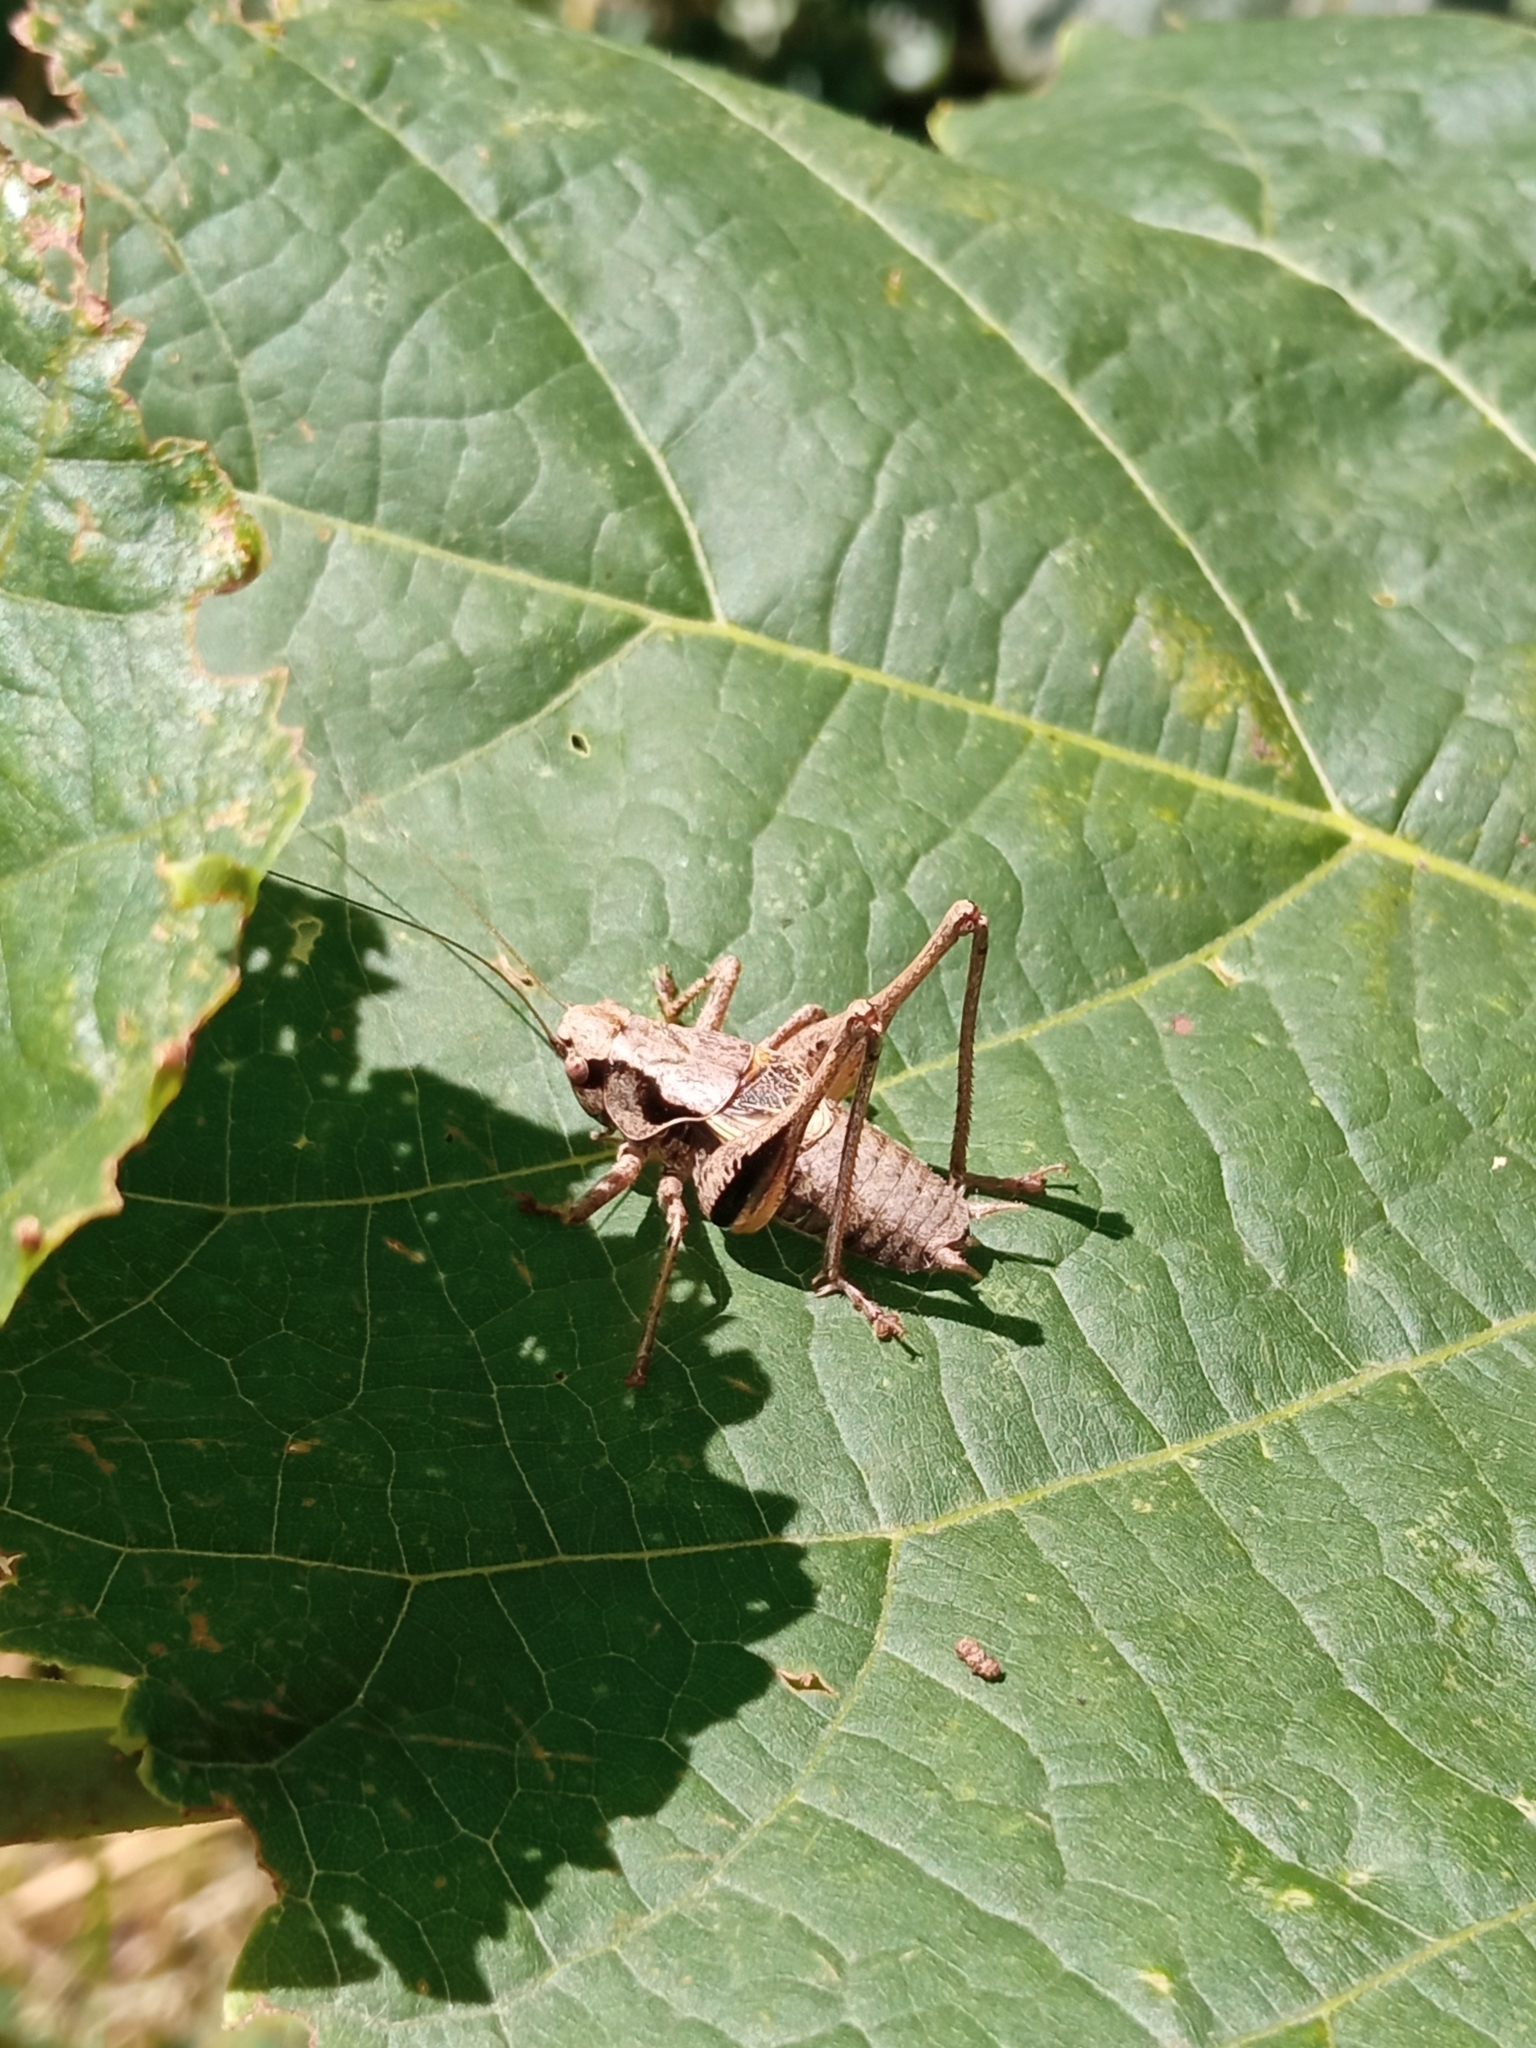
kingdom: Animalia
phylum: Arthropoda
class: Insecta
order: Orthoptera
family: Tettigoniidae
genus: Pholidoptera
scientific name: Pholidoptera griseoaptera
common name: Dark bush-cricket
